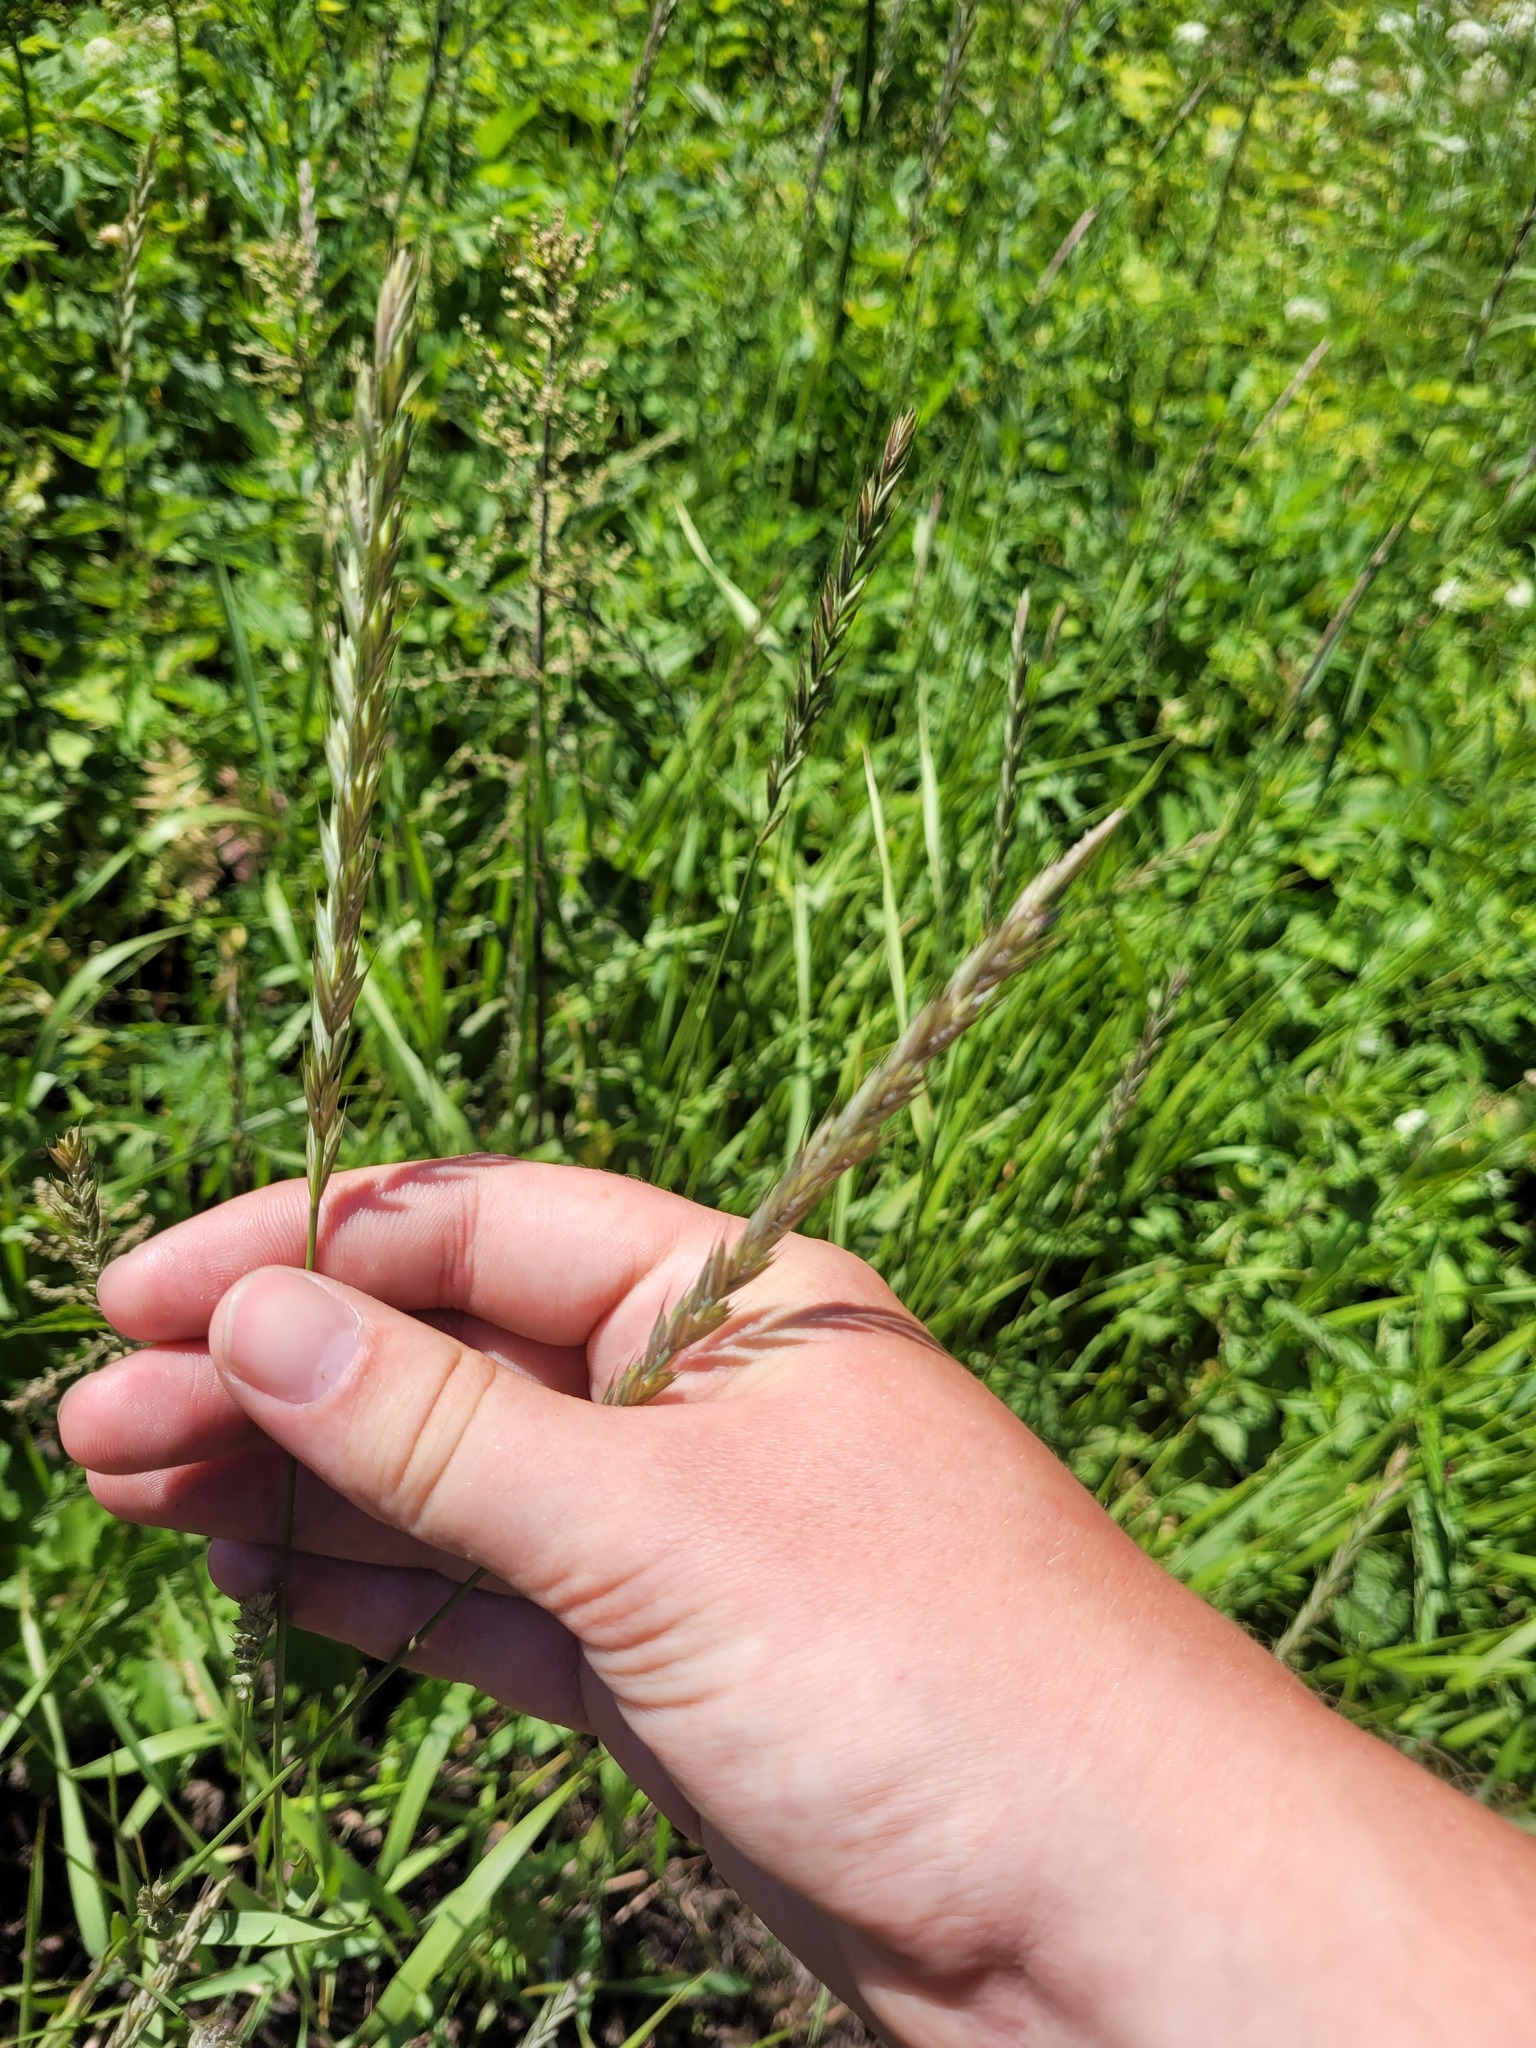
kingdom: Plantae
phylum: Tracheophyta
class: Liliopsida
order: Poales
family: Poaceae
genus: Elymus
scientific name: Elymus repens
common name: Quackgrass
